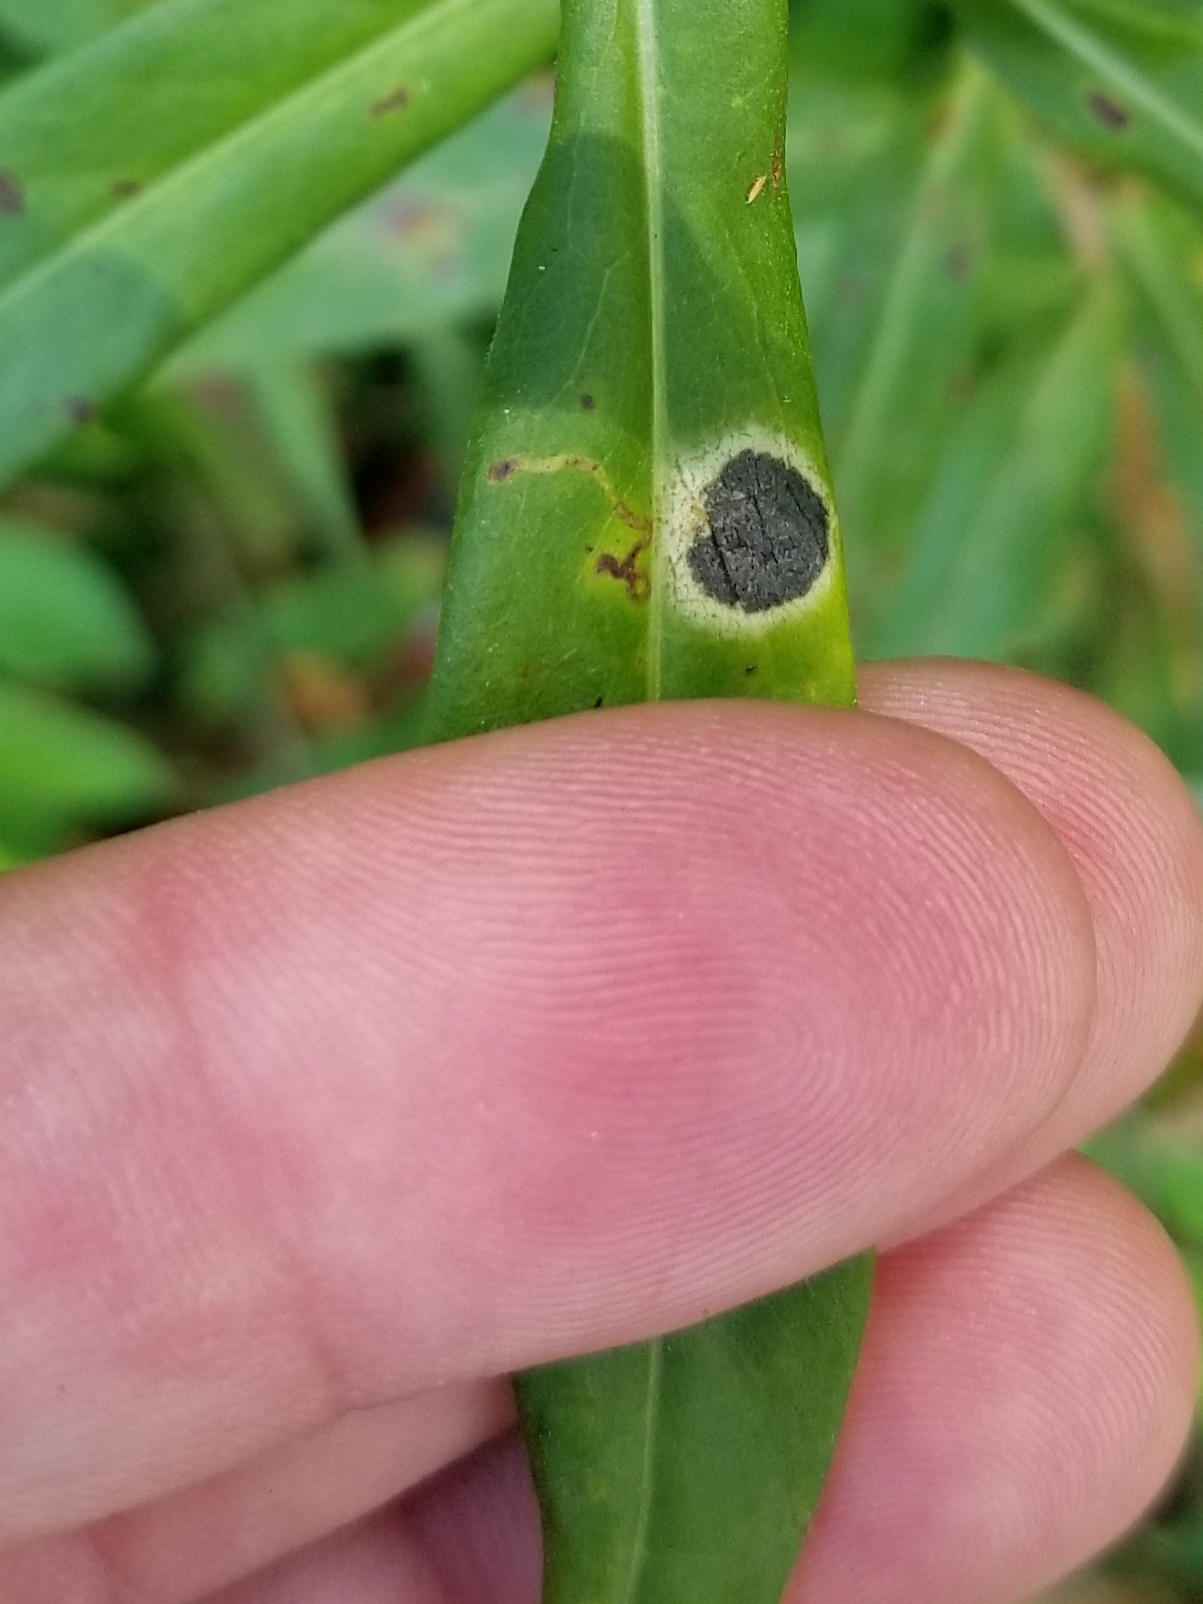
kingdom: Animalia
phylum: Arthropoda
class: Insecta
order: Diptera
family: Cecidomyiidae
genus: Asteromyia
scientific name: Asteromyia laeviana
